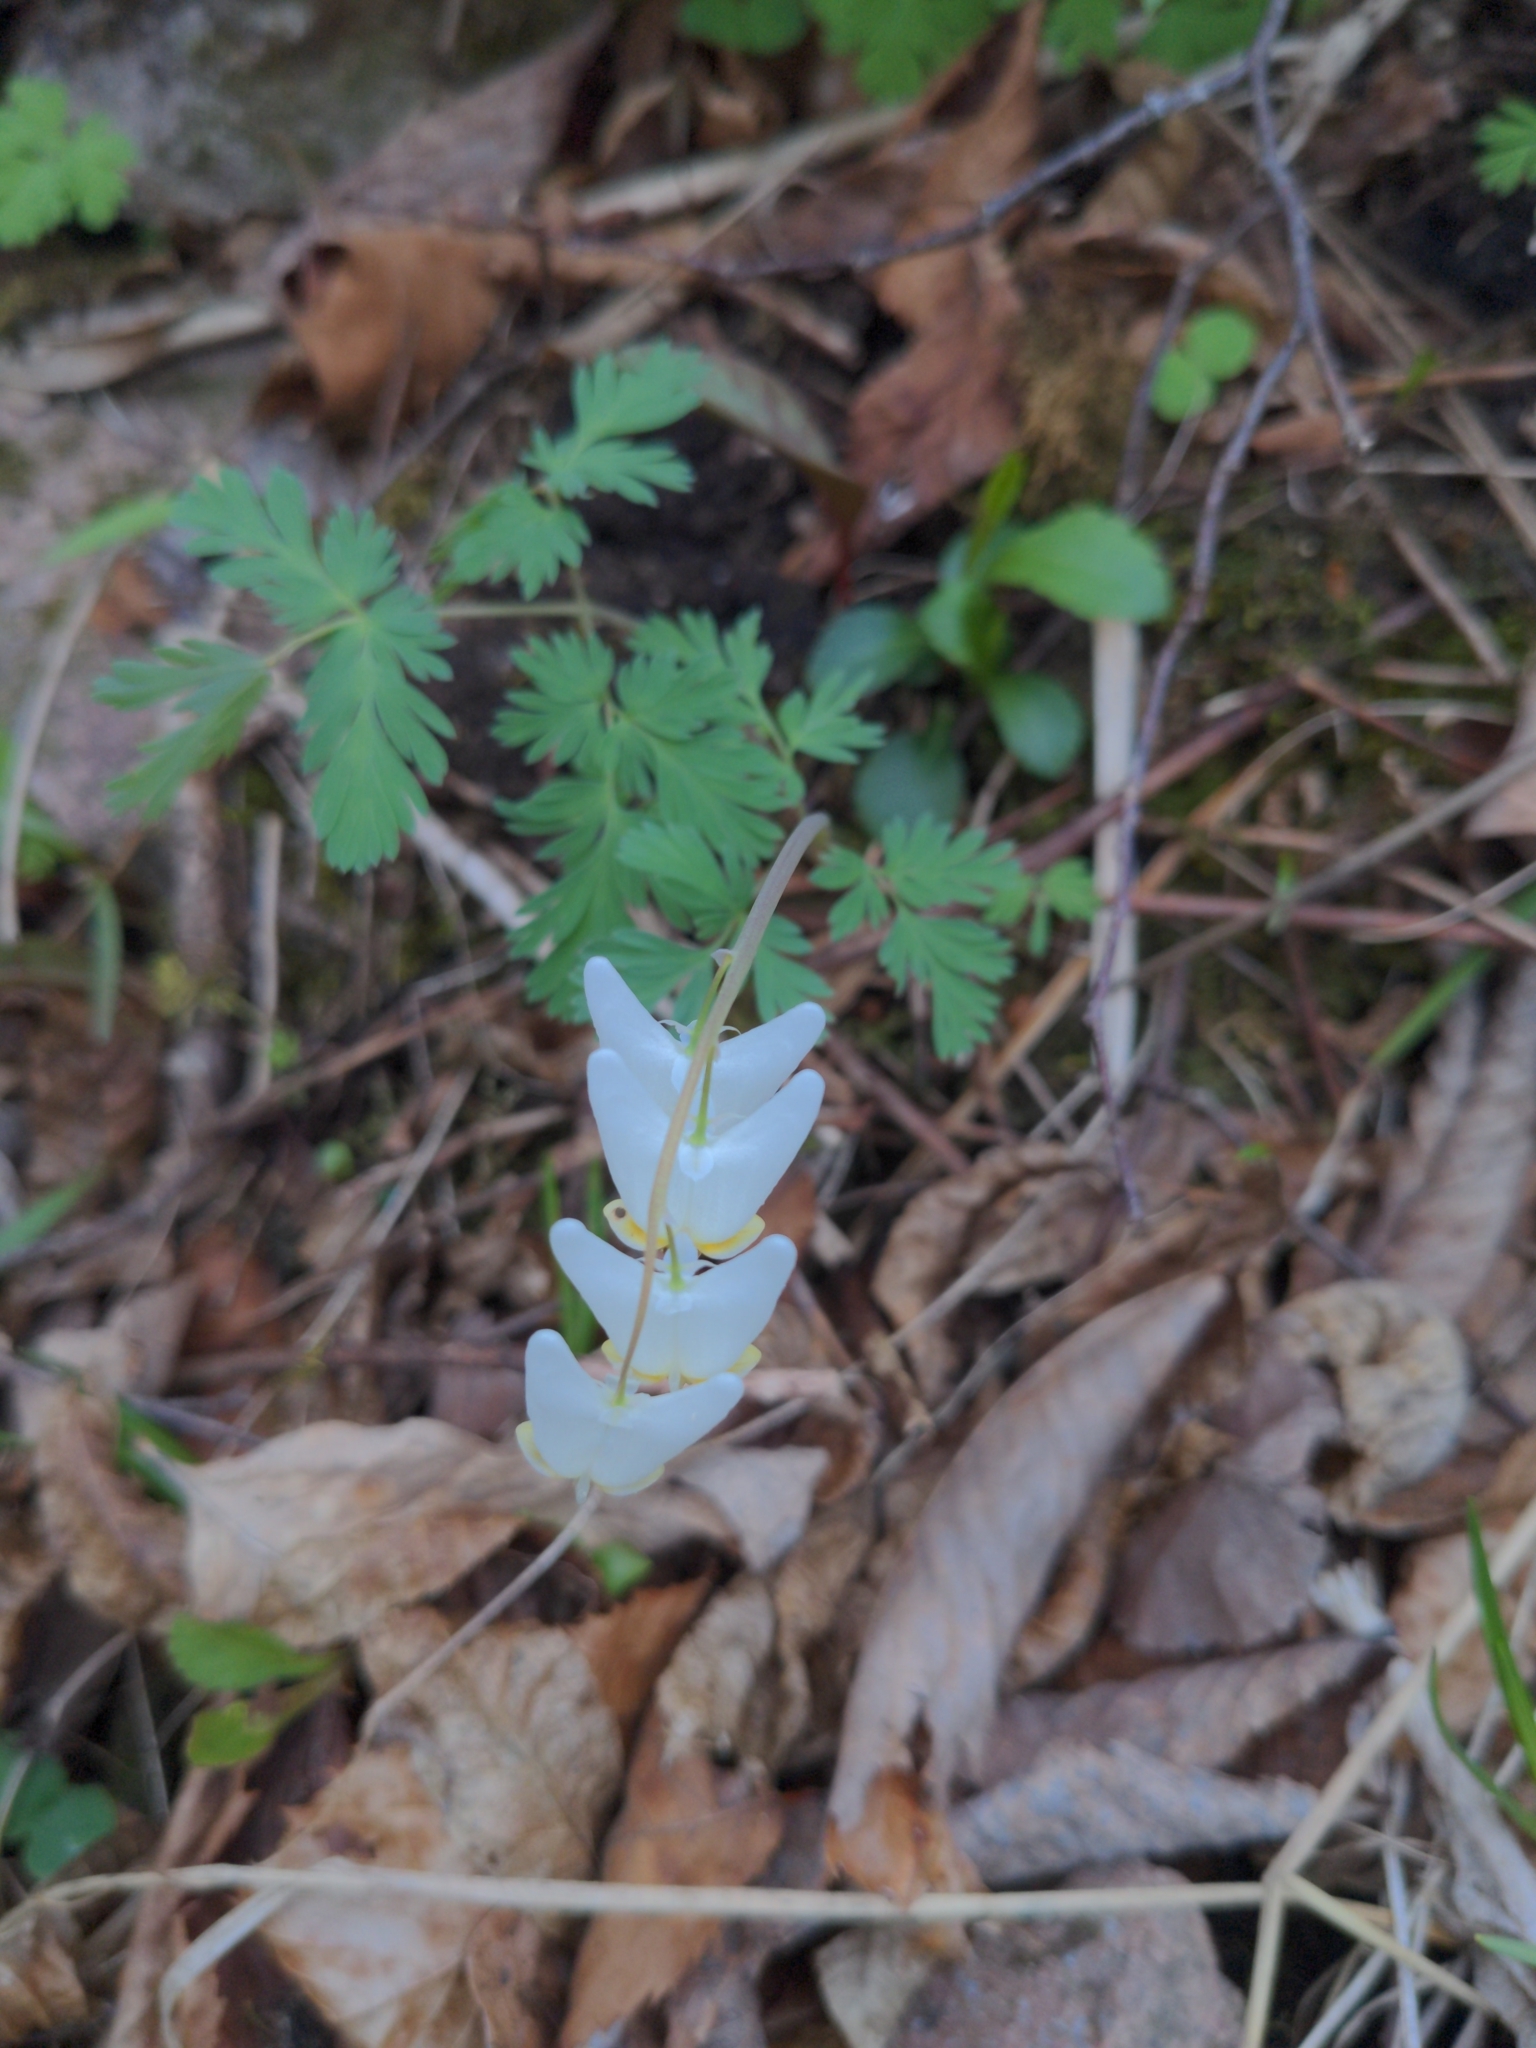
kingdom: Plantae
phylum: Tracheophyta
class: Magnoliopsida
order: Ranunculales
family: Papaveraceae
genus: Dicentra
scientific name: Dicentra cucullaria
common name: Dutchman's breeches
